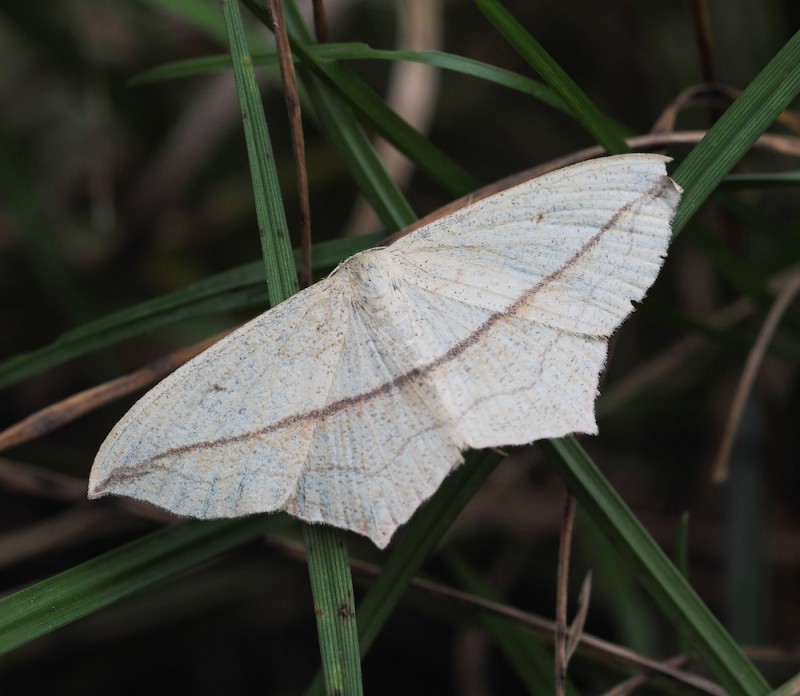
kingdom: Animalia
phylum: Arthropoda
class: Insecta
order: Lepidoptera
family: Geometridae
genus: Timandra
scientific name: Timandra comae
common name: Blood-vein
